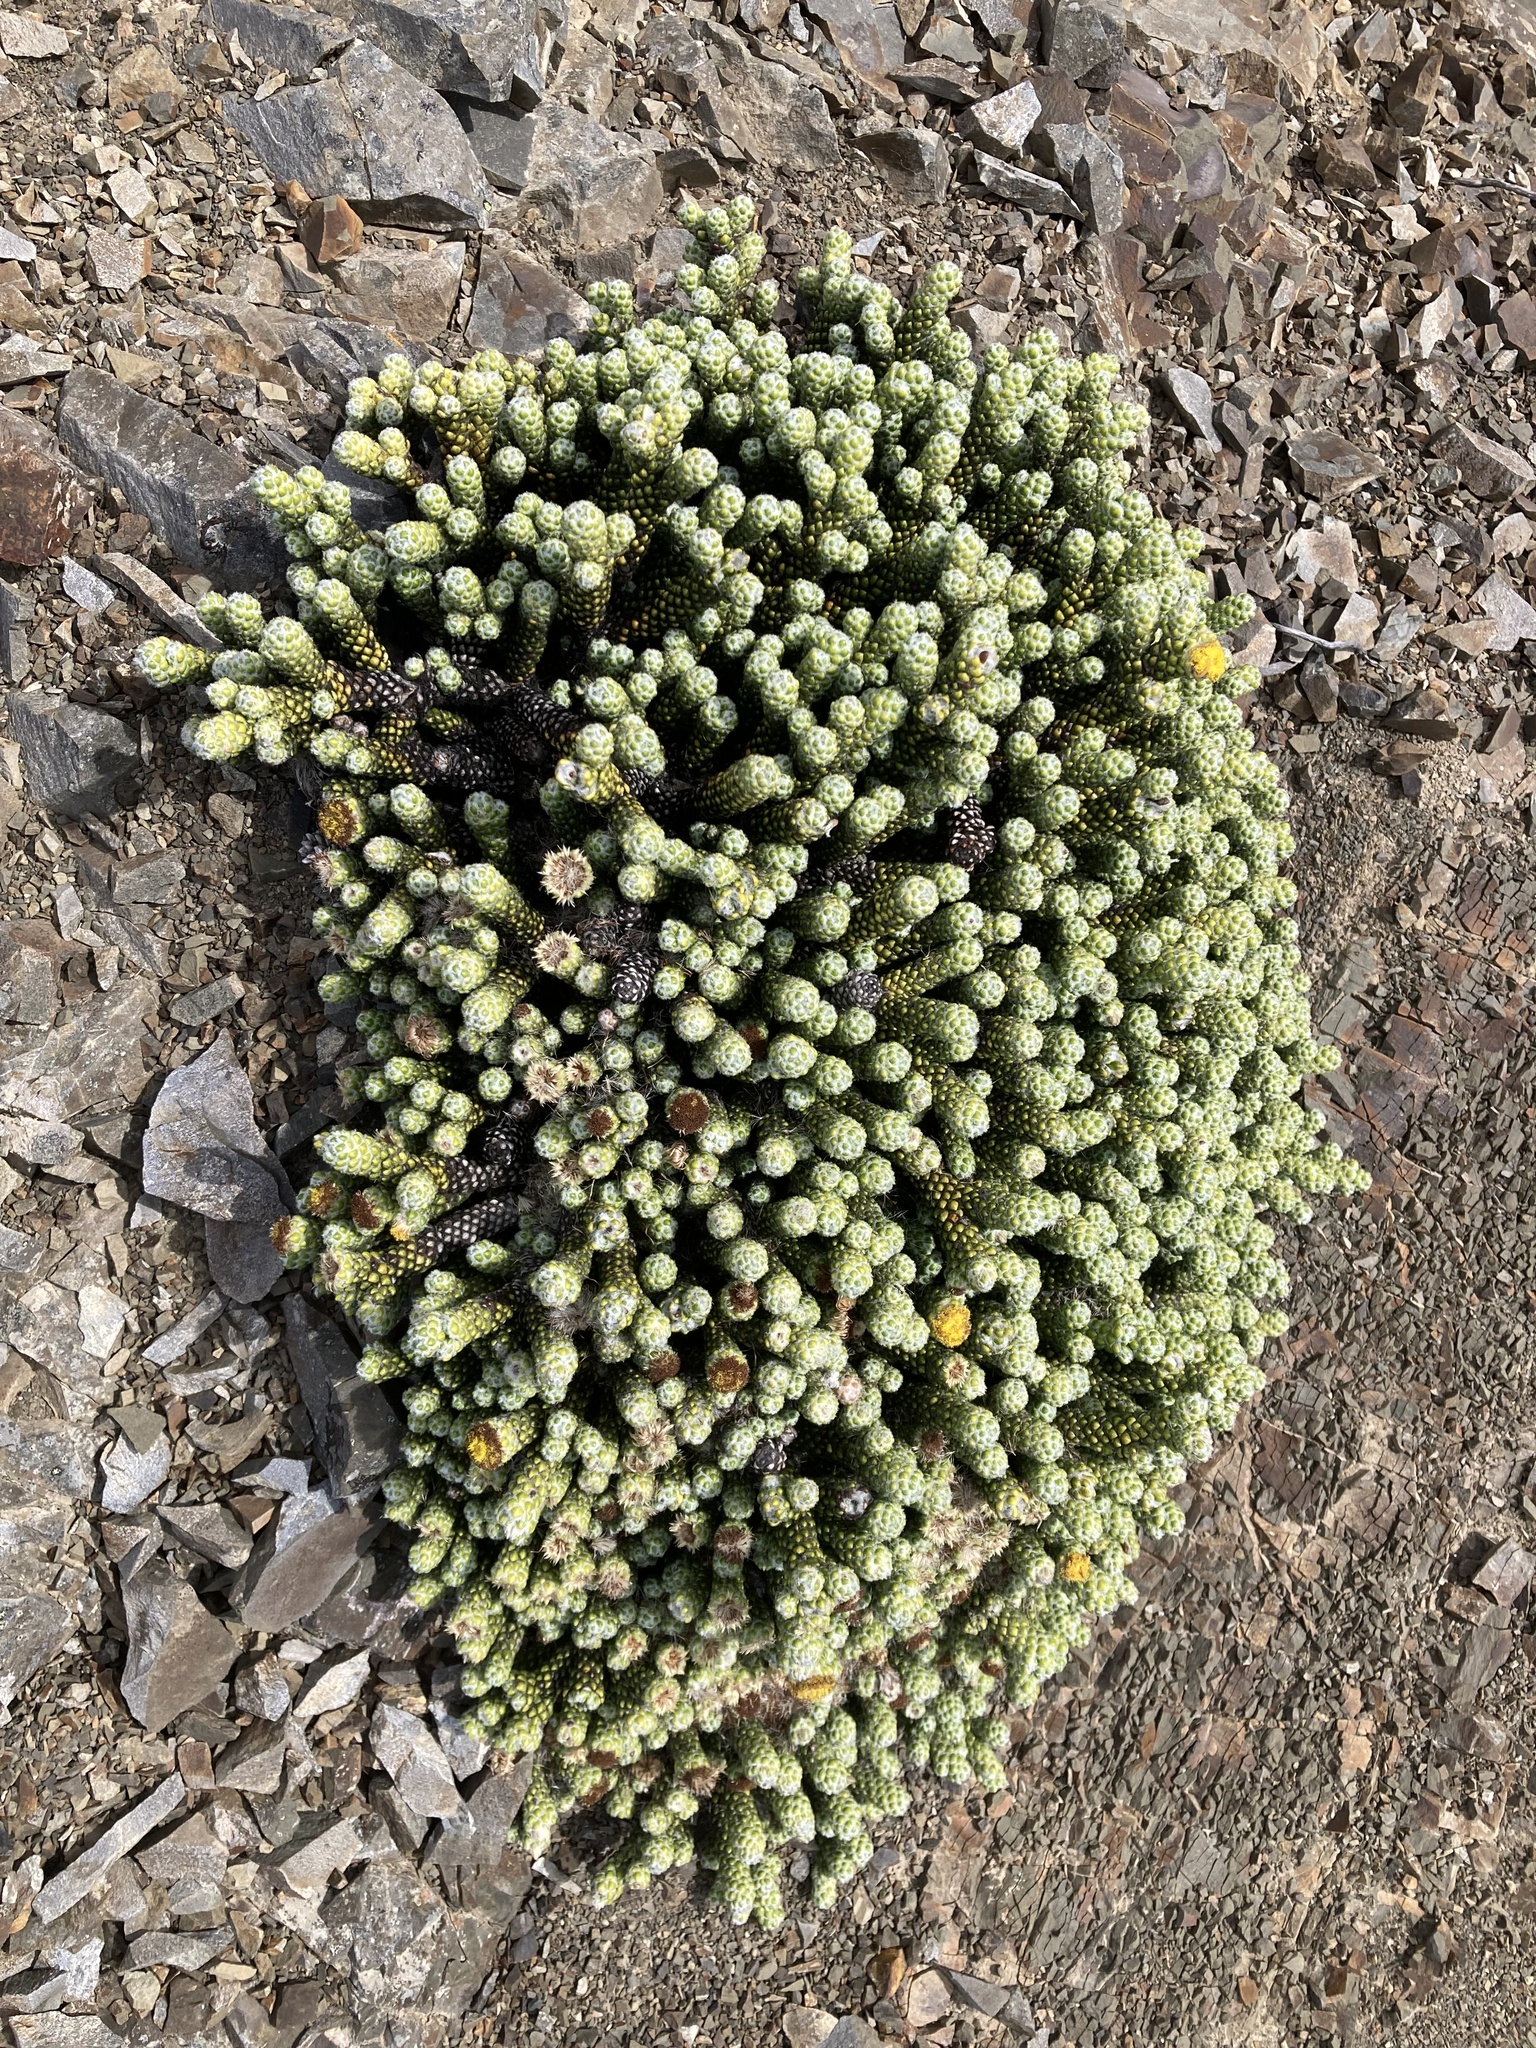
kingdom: Plantae
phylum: Tracheophyta
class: Magnoliopsida
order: Asterales
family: Asteraceae
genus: Ozothamnus
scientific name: Ozothamnus coralloides
